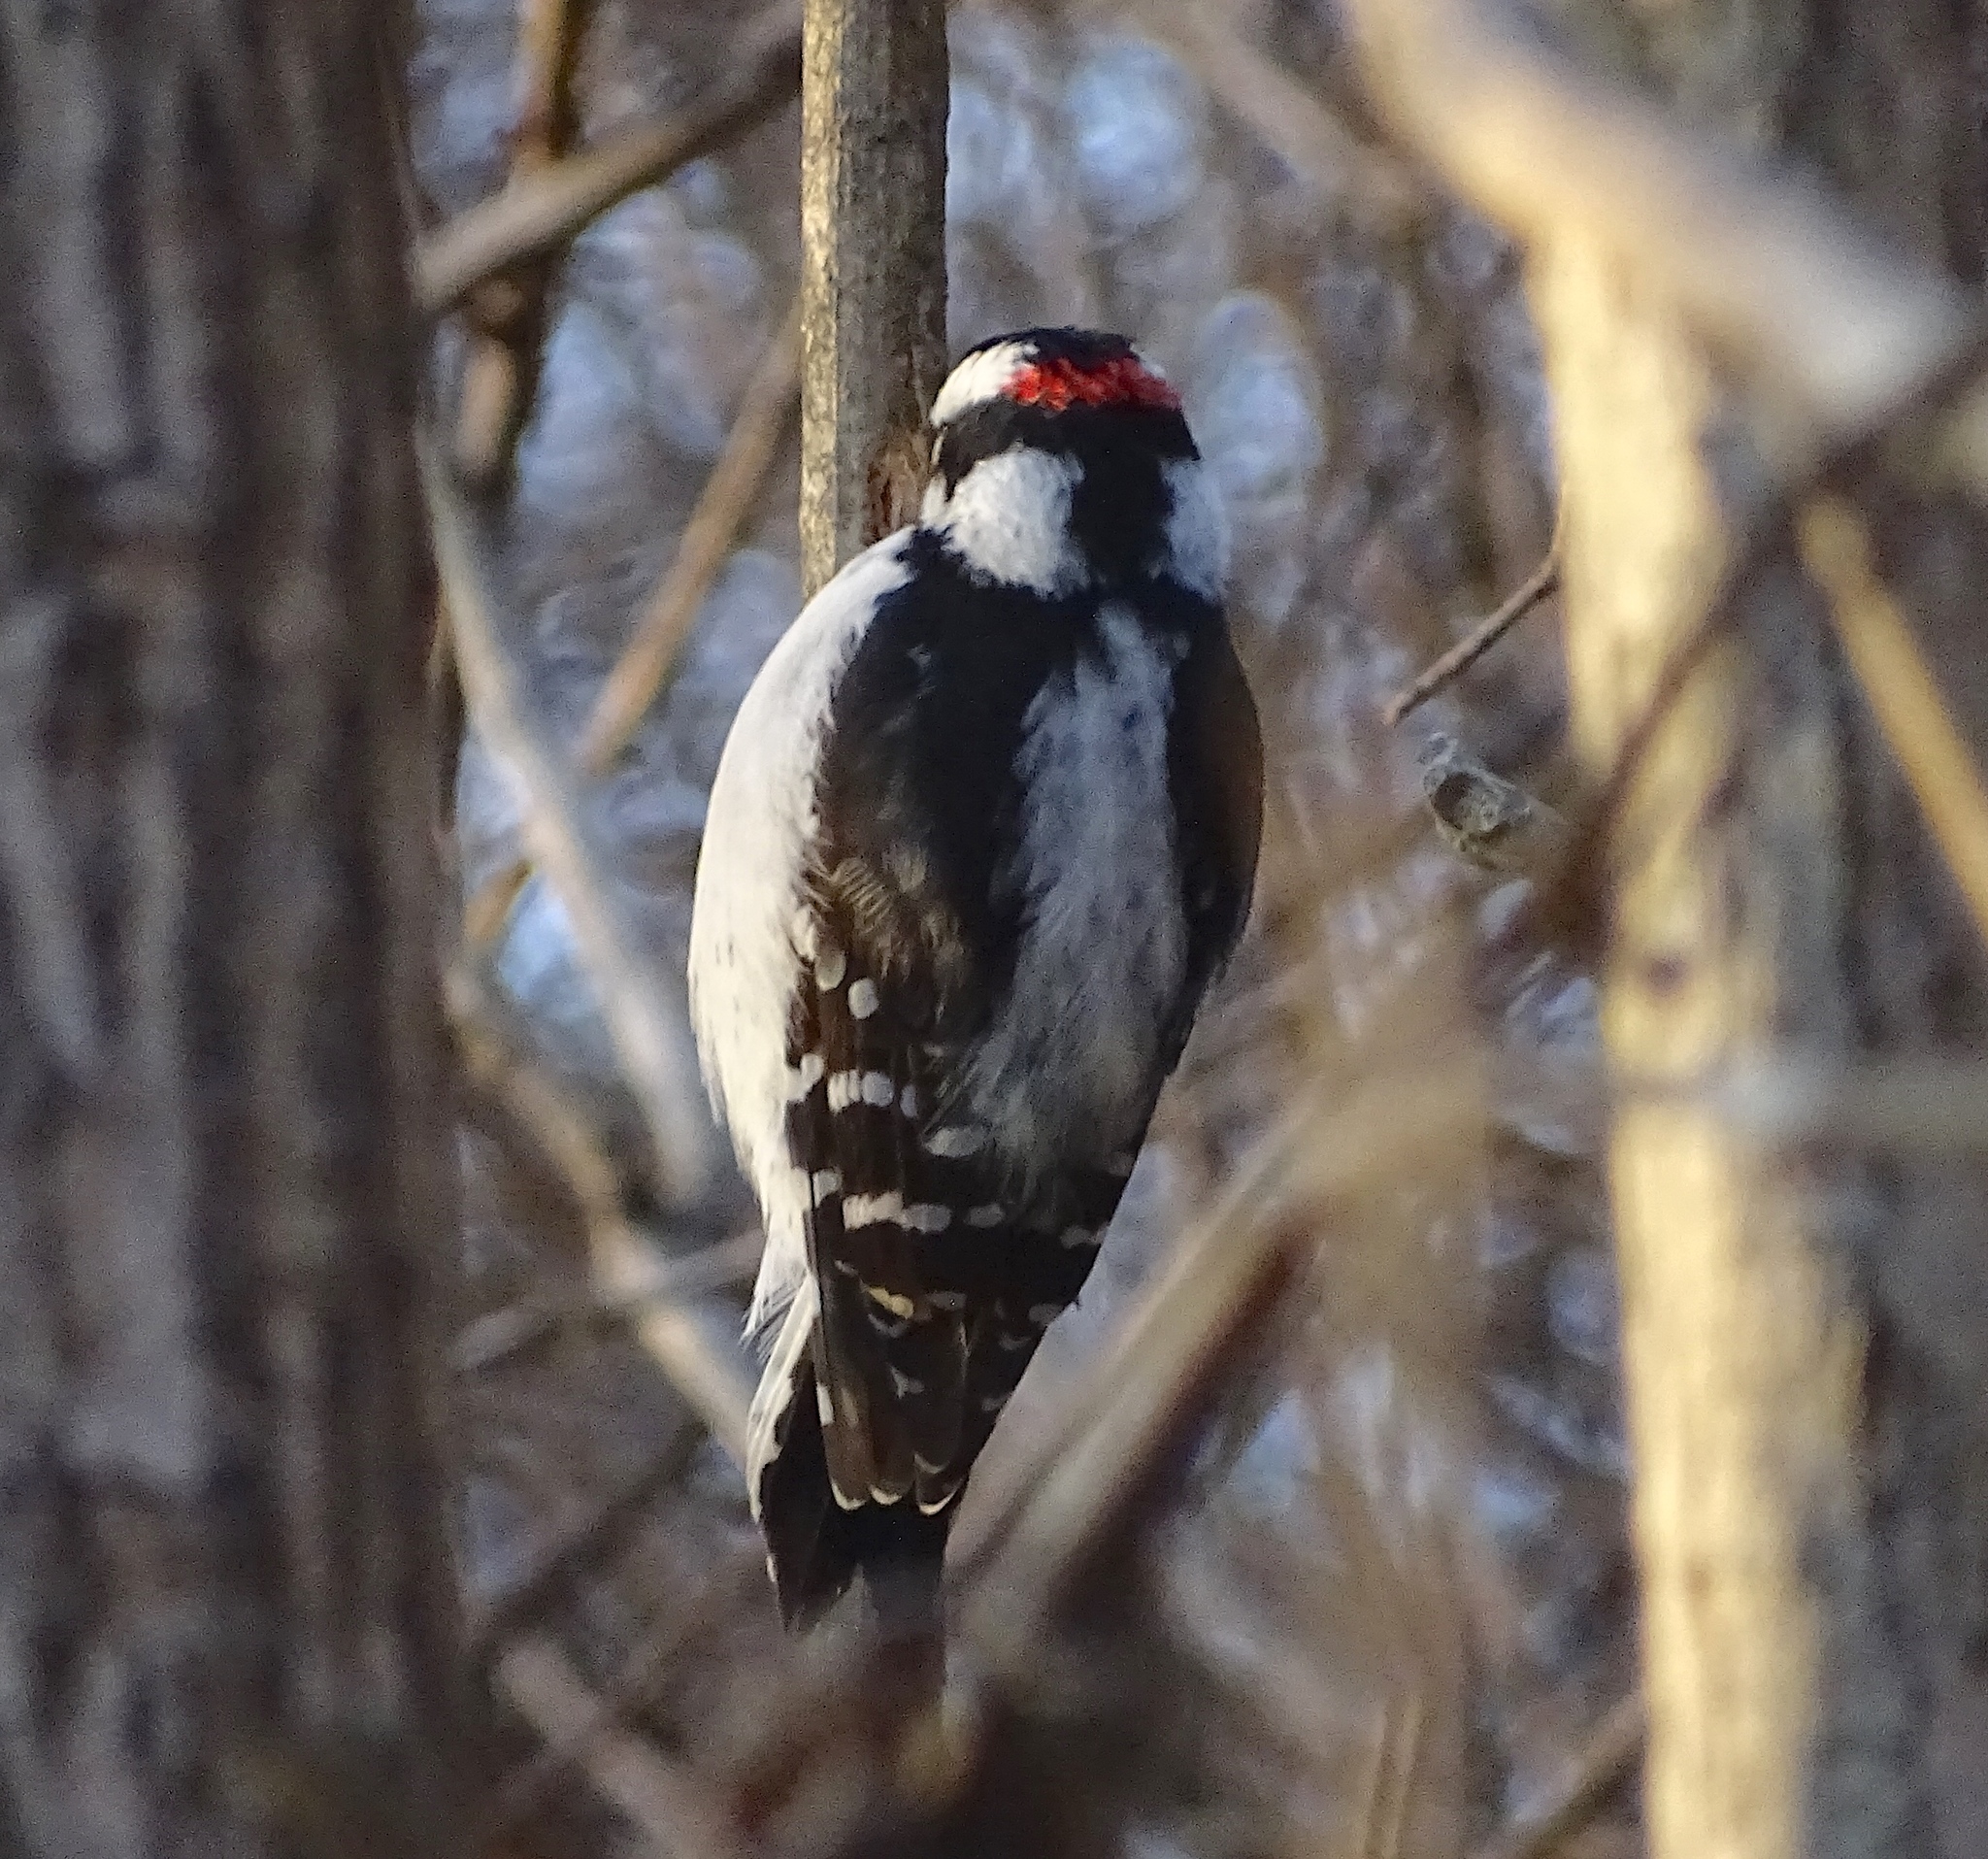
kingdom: Animalia
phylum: Chordata
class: Aves
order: Piciformes
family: Picidae
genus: Dryobates
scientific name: Dryobates pubescens
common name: Downy woodpecker
